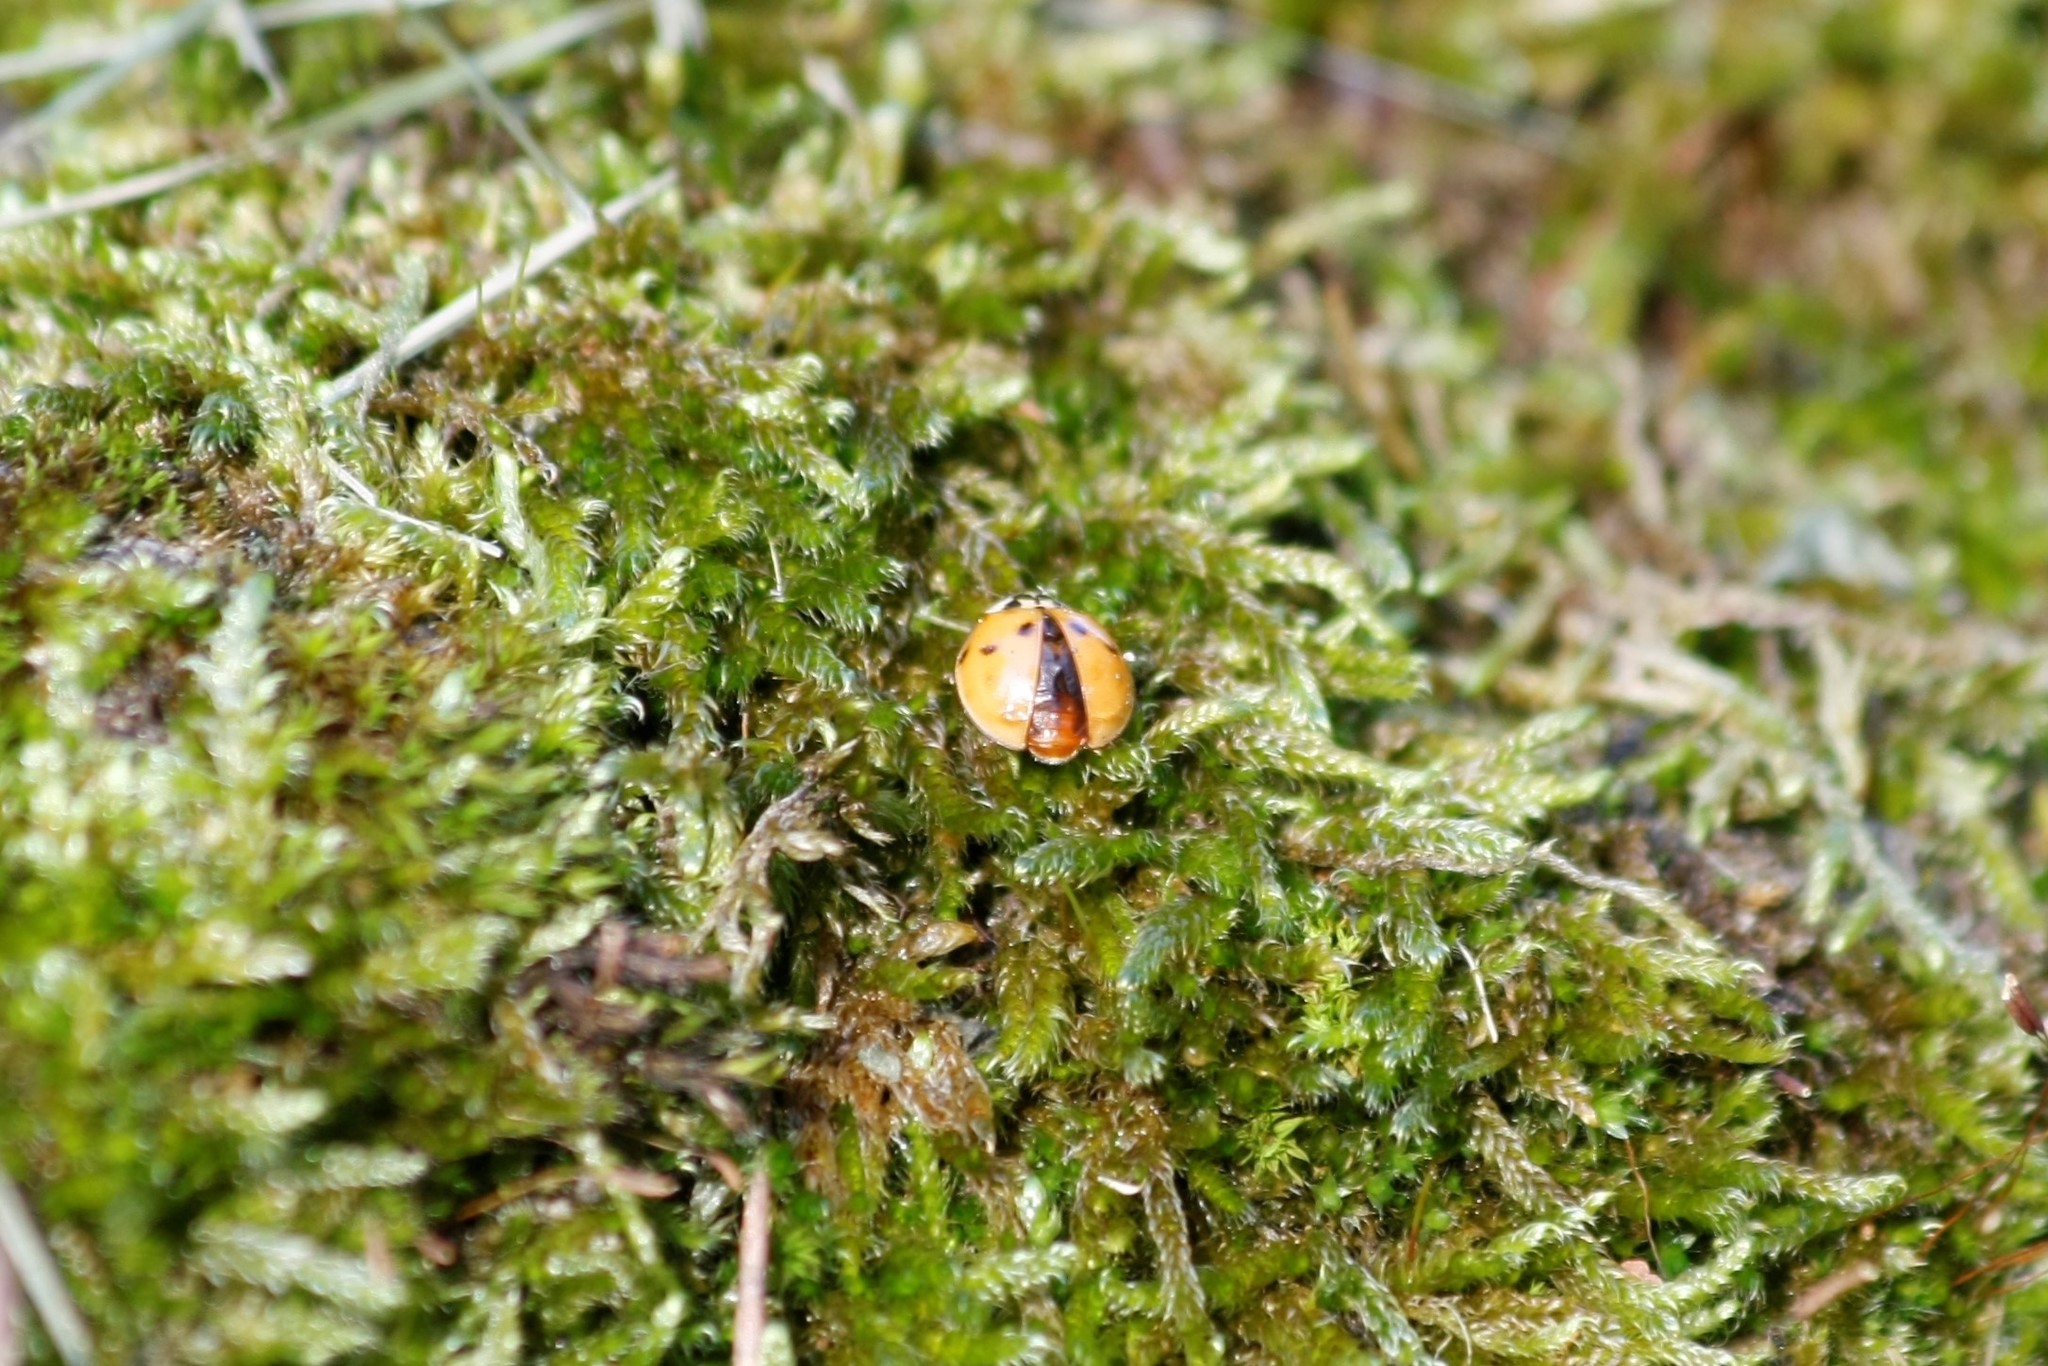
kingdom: Animalia
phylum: Arthropoda
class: Insecta
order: Coleoptera
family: Coccinellidae
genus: Harmonia
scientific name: Harmonia axyridis
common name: Harlequin ladybird
